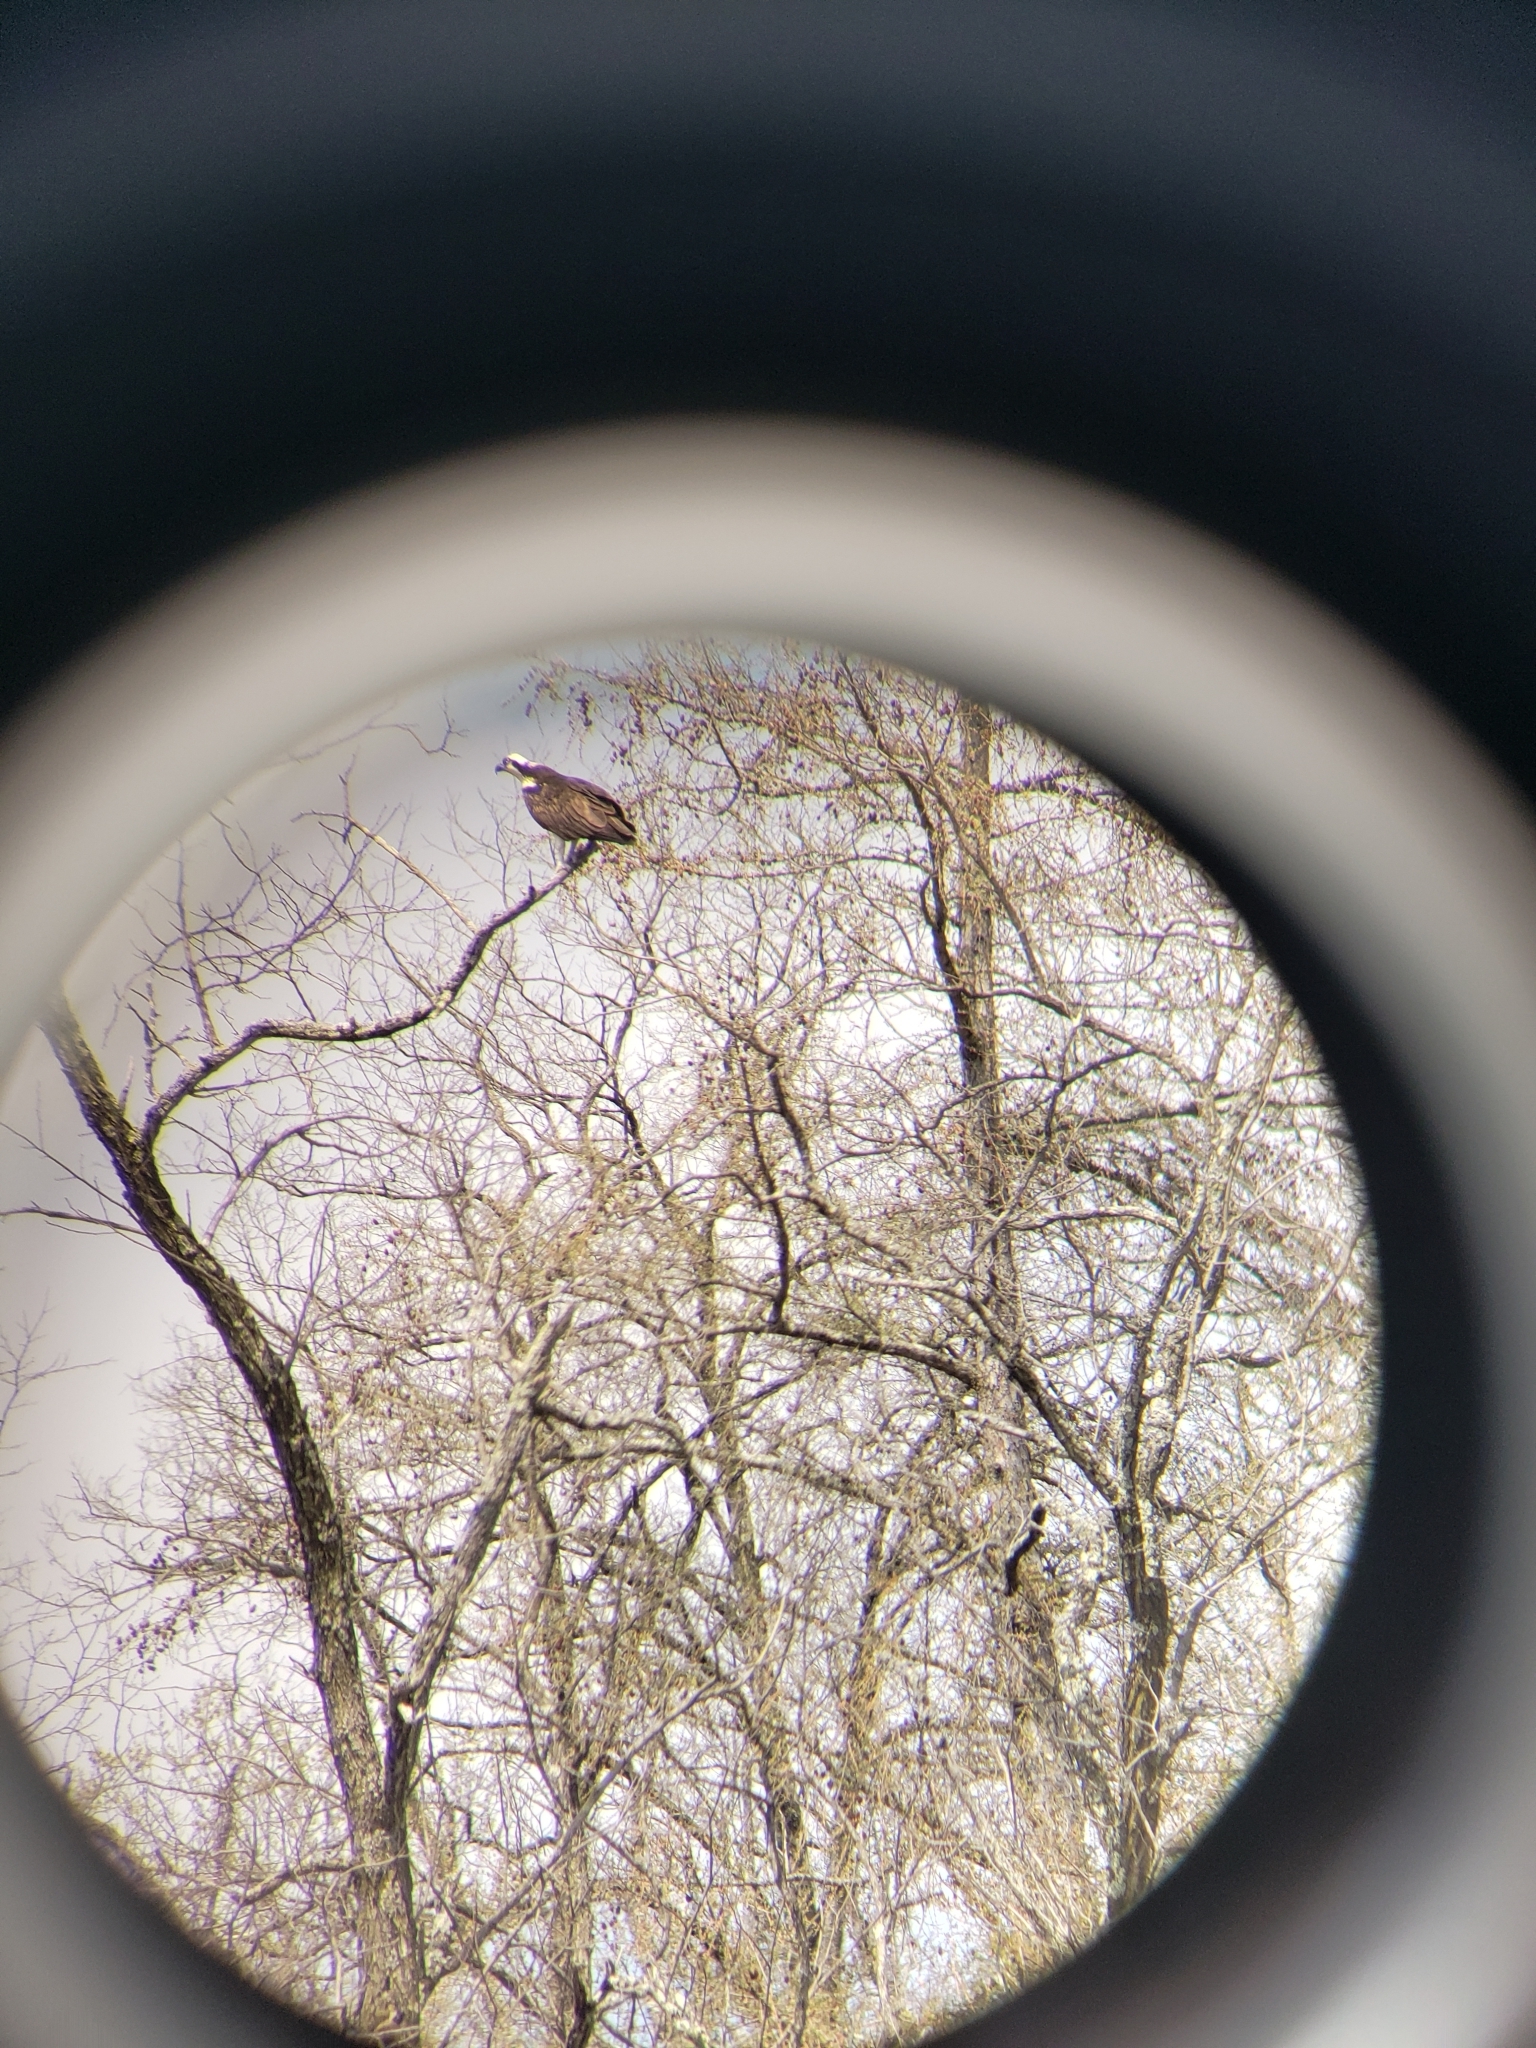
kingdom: Animalia
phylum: Chordata
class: Aves
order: Accipitriformes
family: Pandionidae
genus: Pandion
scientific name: Pandion haliaetus
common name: Osprey
